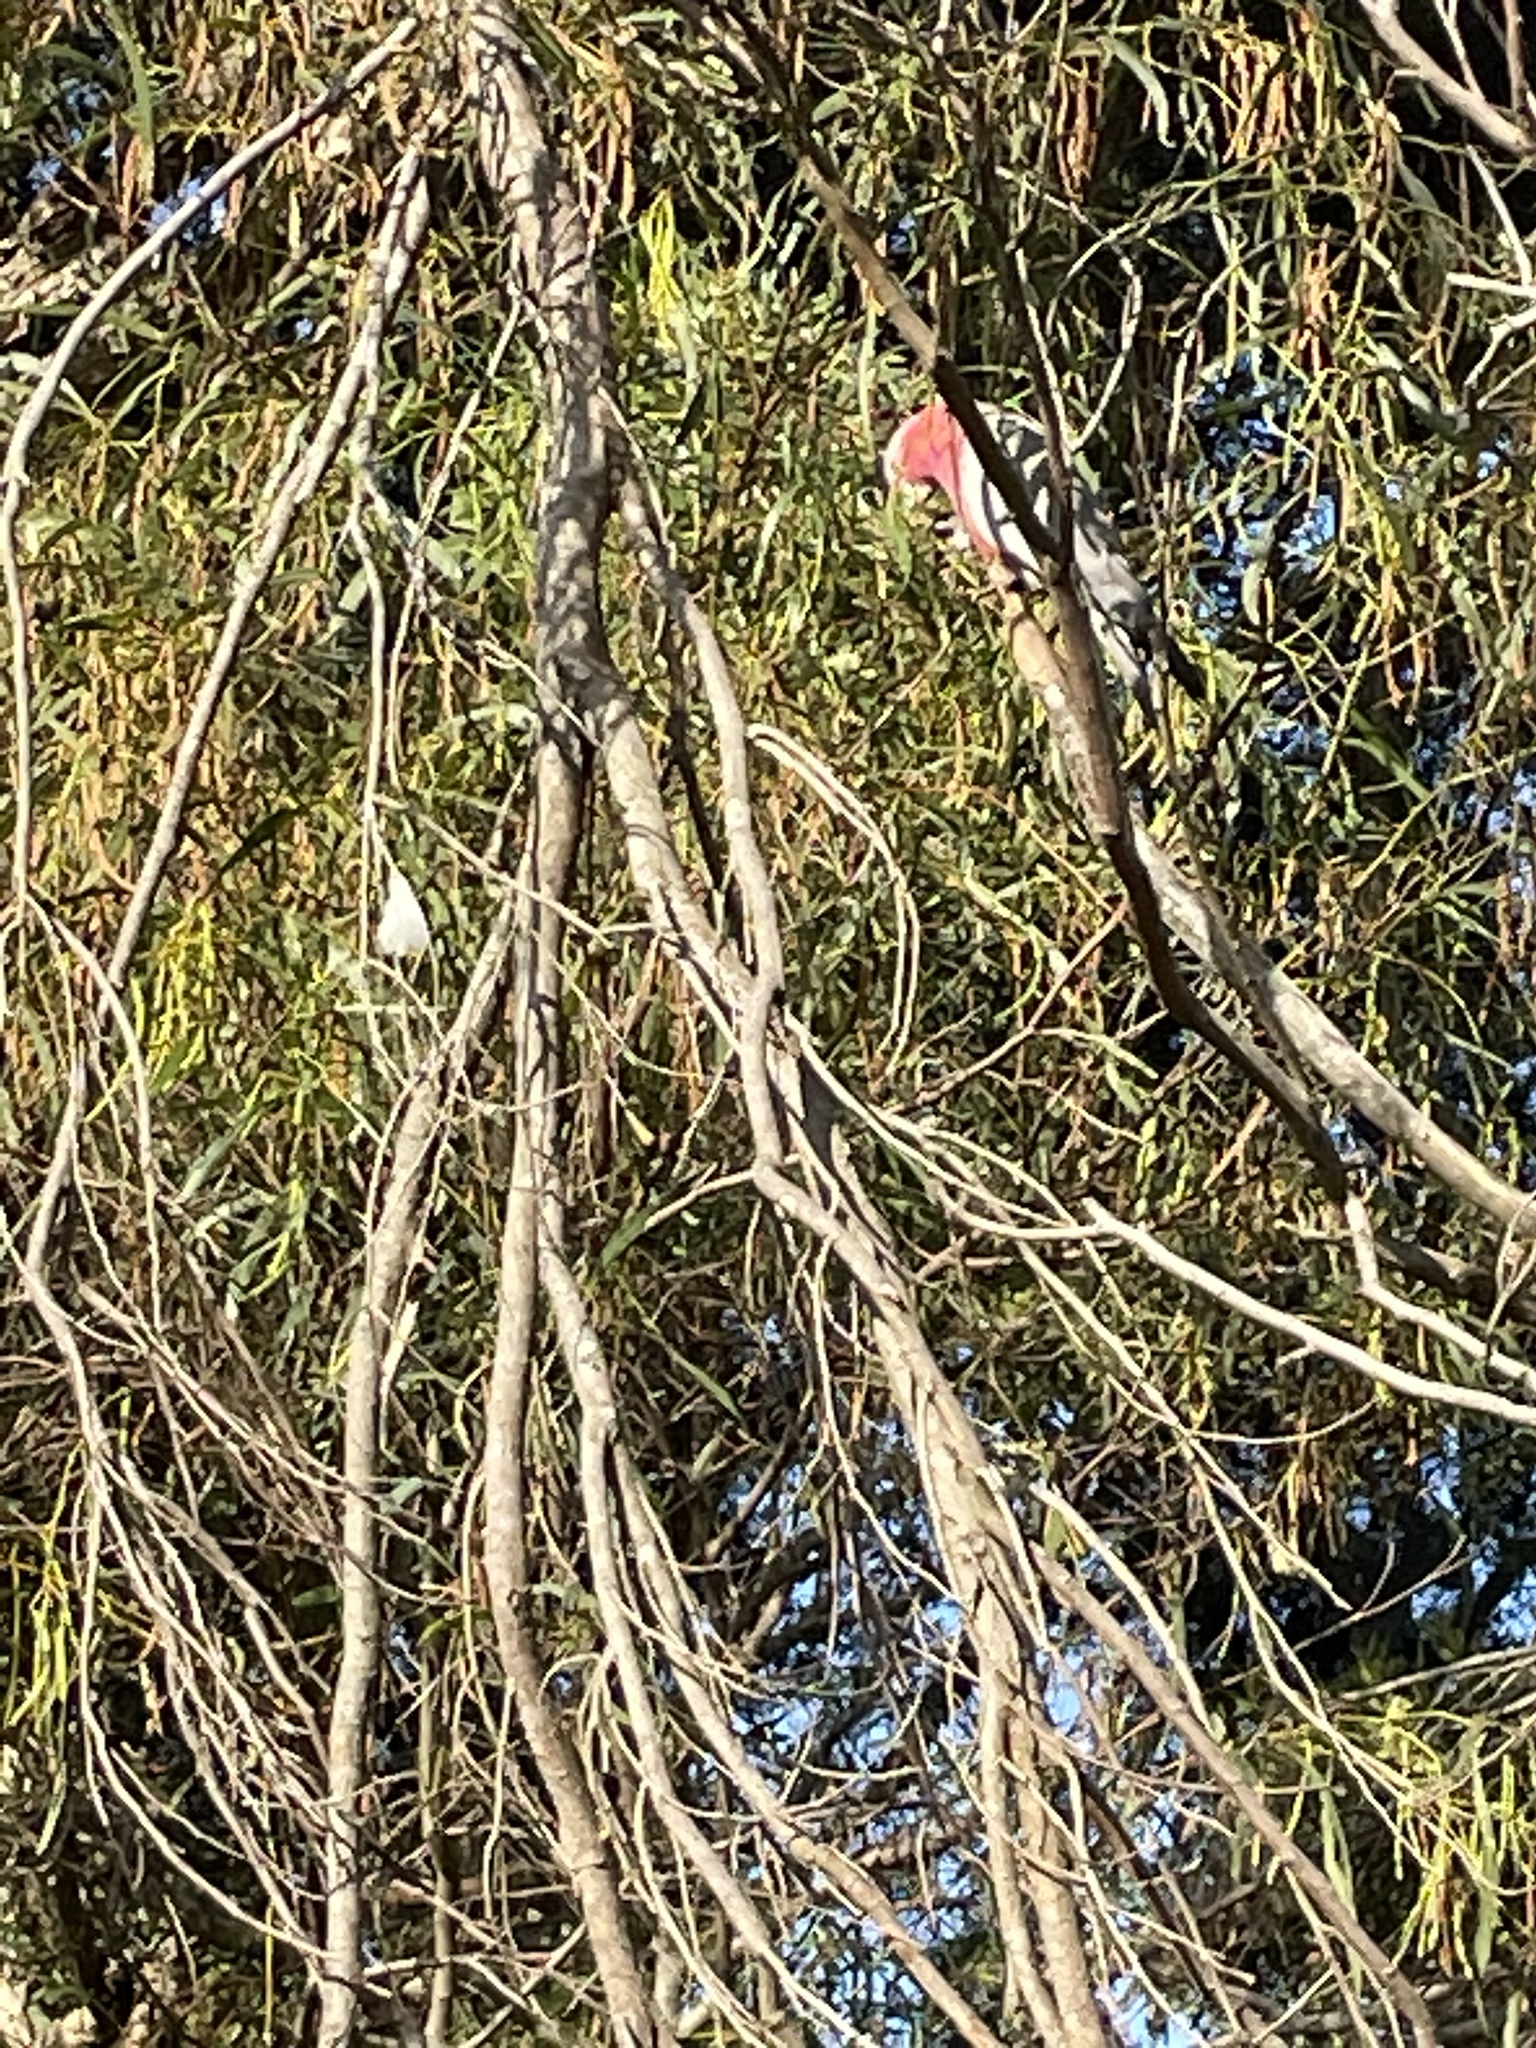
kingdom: Animalia
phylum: Chordata
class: Aves
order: Psittaciformes
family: Psittacidae
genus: Eolophus
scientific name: Eolophus roseicapilla
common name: Galah
